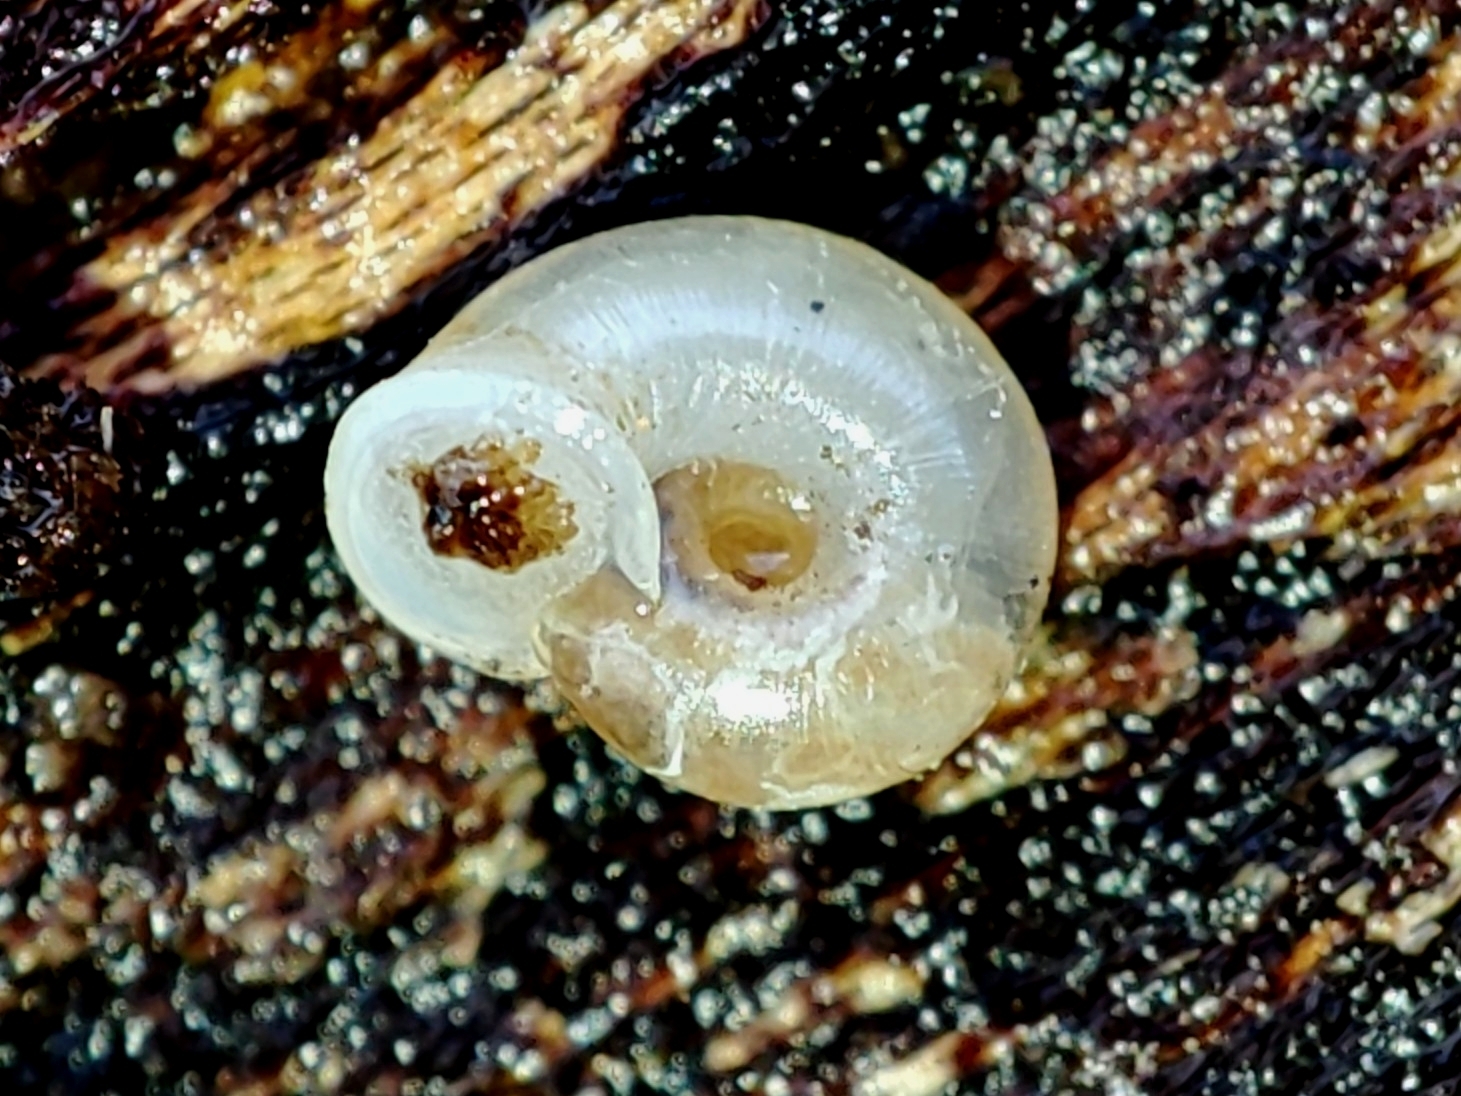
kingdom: Animalia
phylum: Mollusca
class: Gastropoda
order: Stylommatophora
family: Valloniidae
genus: Vallonia
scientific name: Vallonia pulchella
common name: Smooth grass snail
